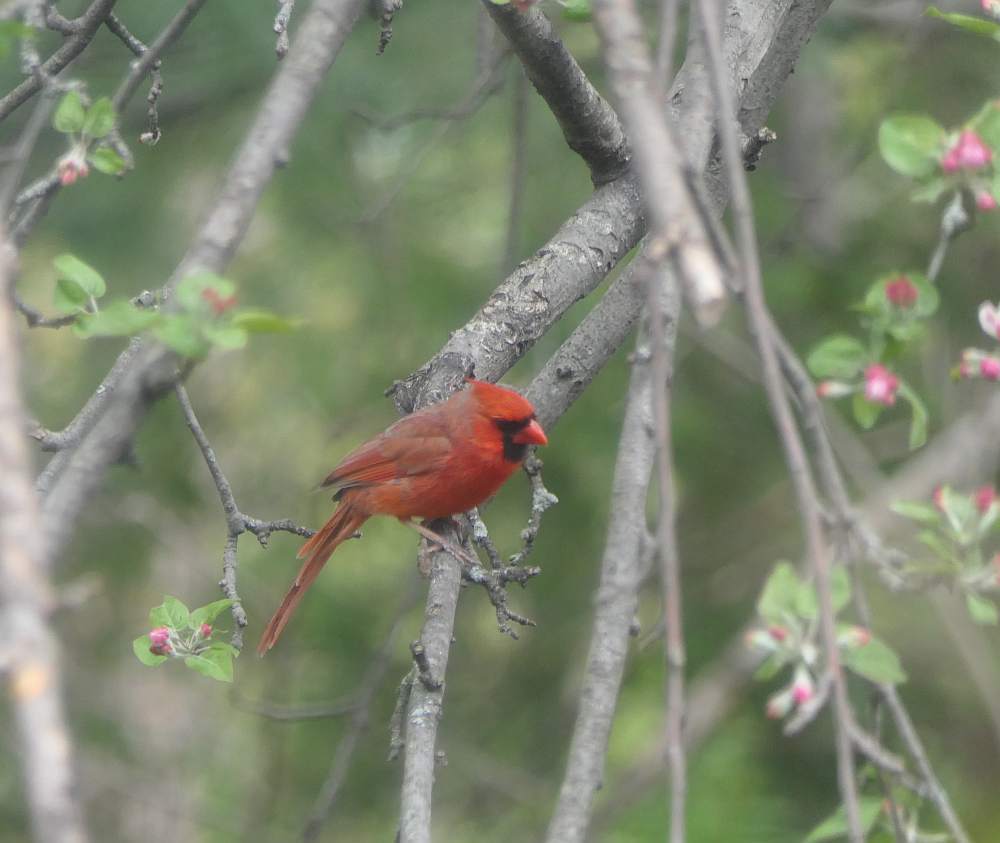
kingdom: Animalia
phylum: Chordata
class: Aves
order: Passeriformes
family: Cardinalidae
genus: Cardinalis
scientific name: Cardinalis cardinalis
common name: Northern cardinal
